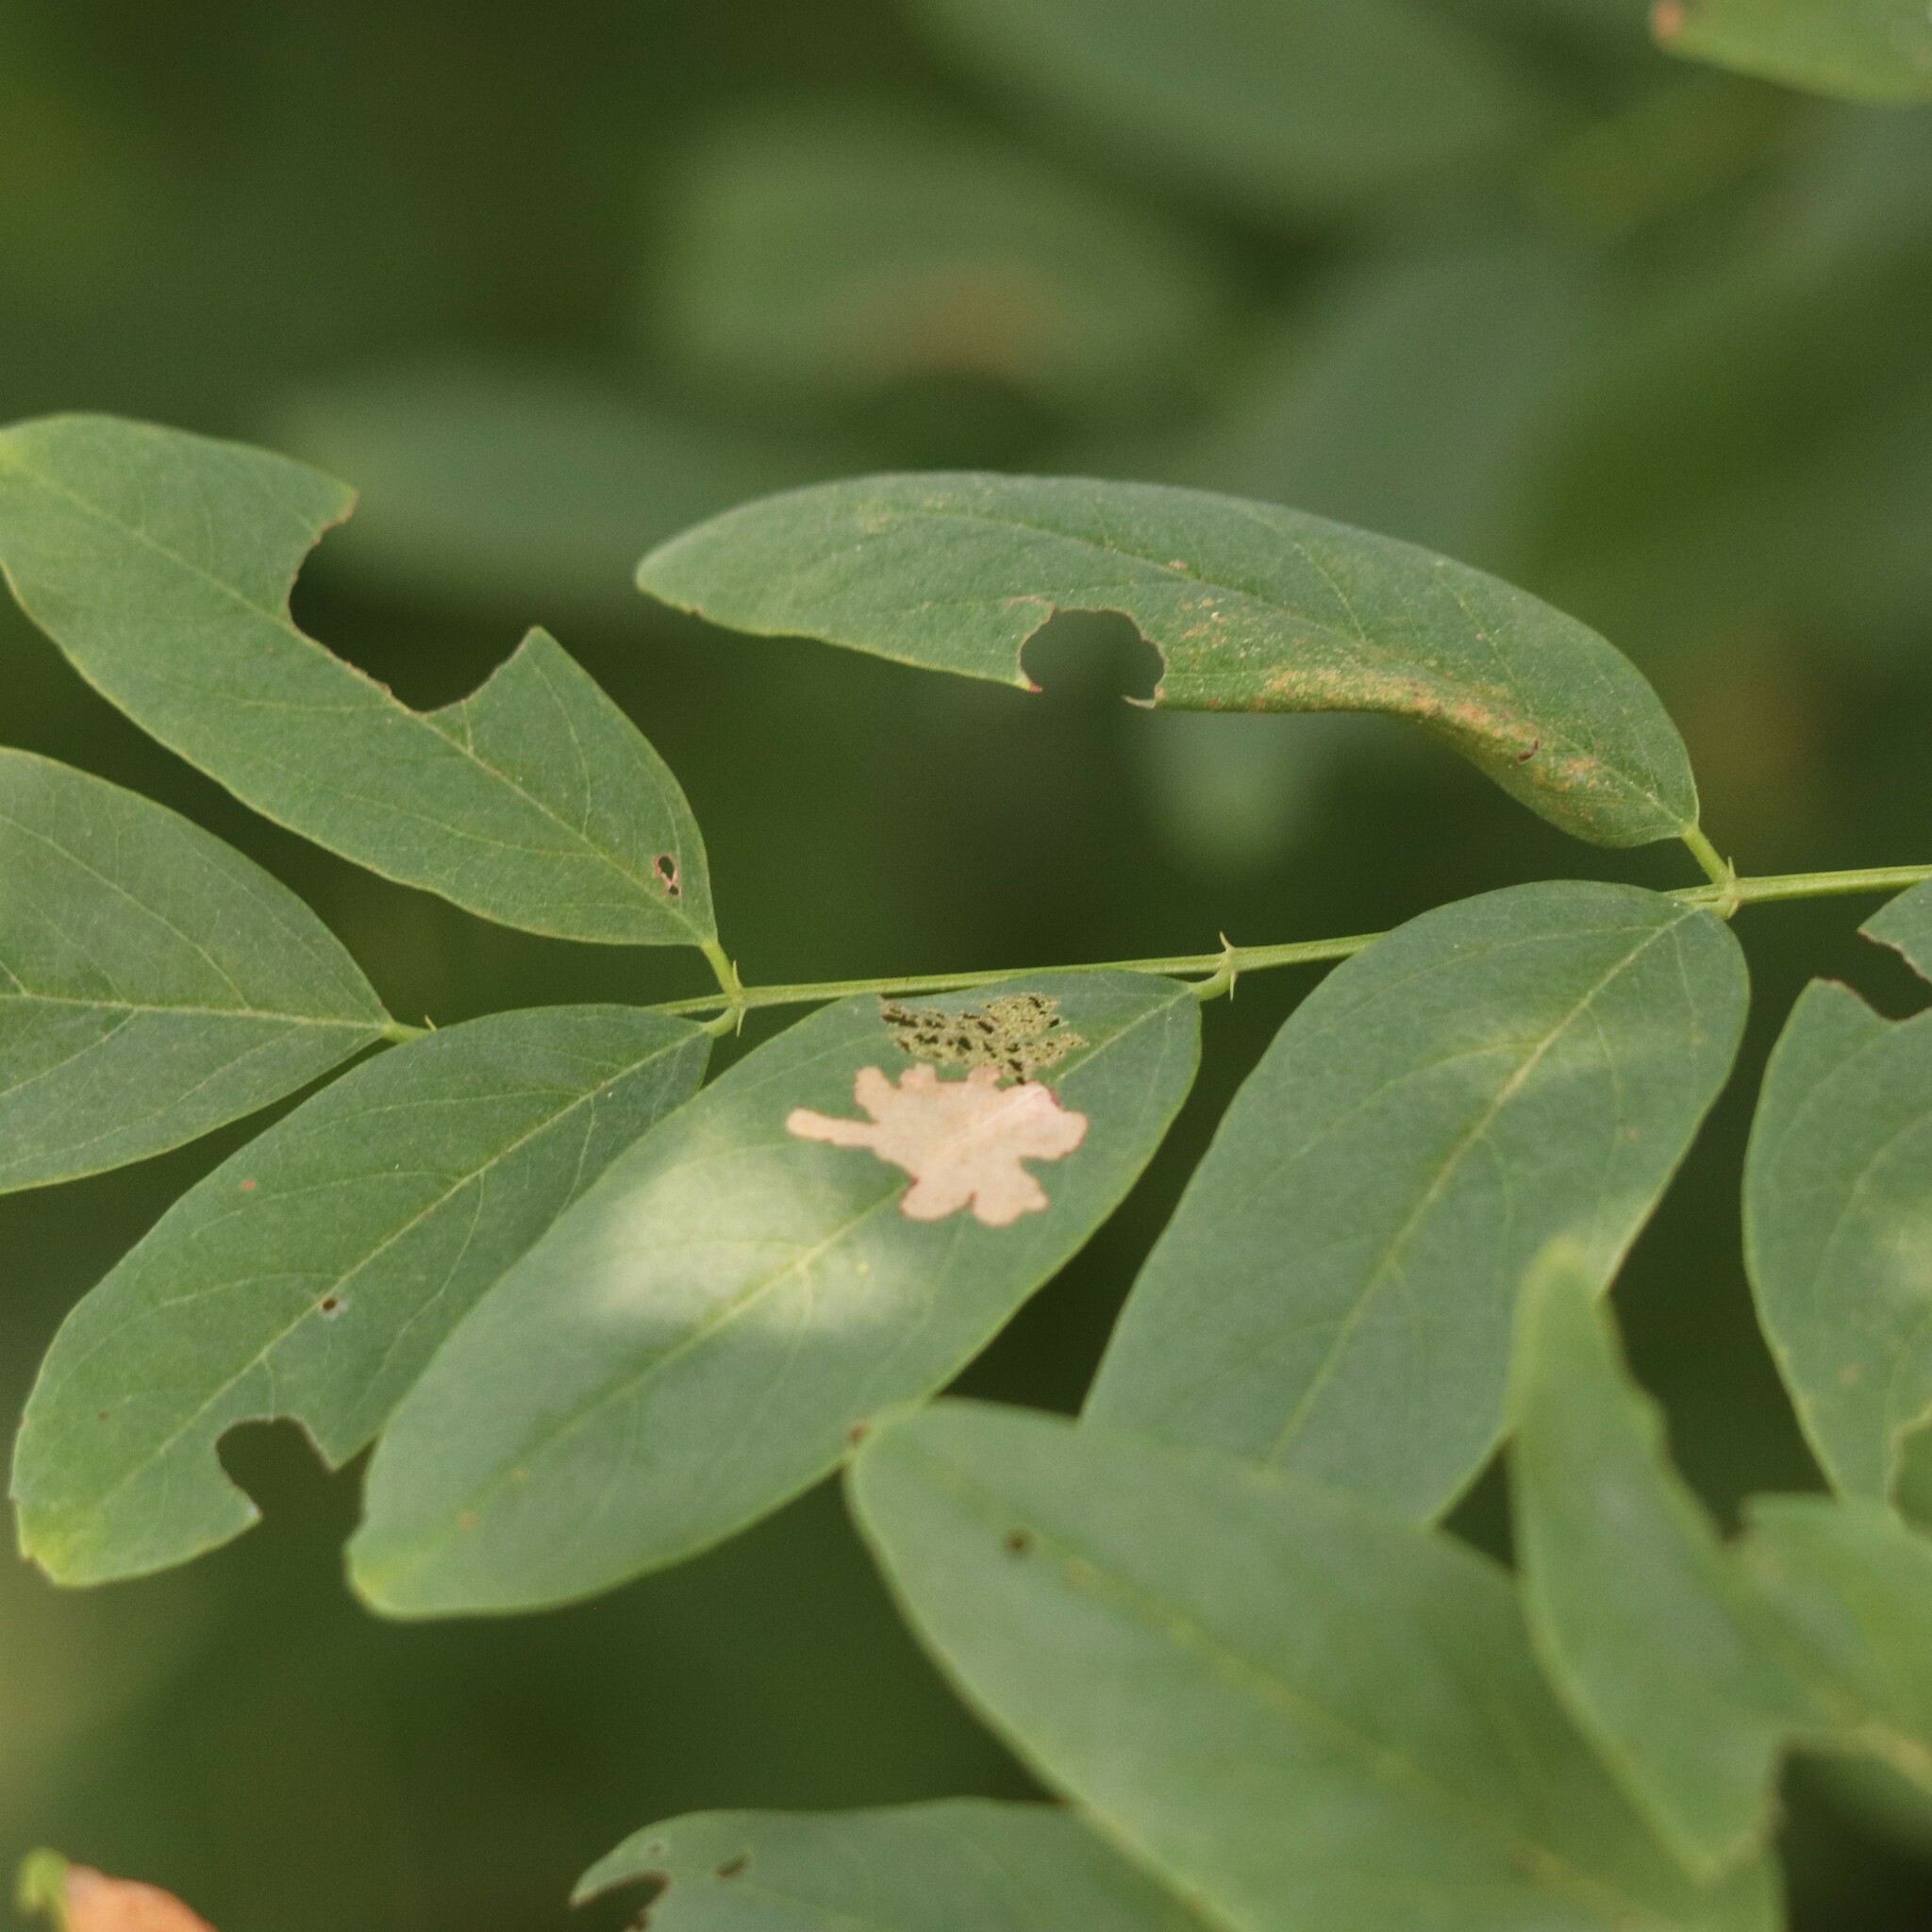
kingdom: Animalia
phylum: Arthropoda
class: Insecta
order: Lepidoptera
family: Gracillariidae
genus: Parectopa
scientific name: Parectopa robiniella
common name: Locust digitate leafminer
